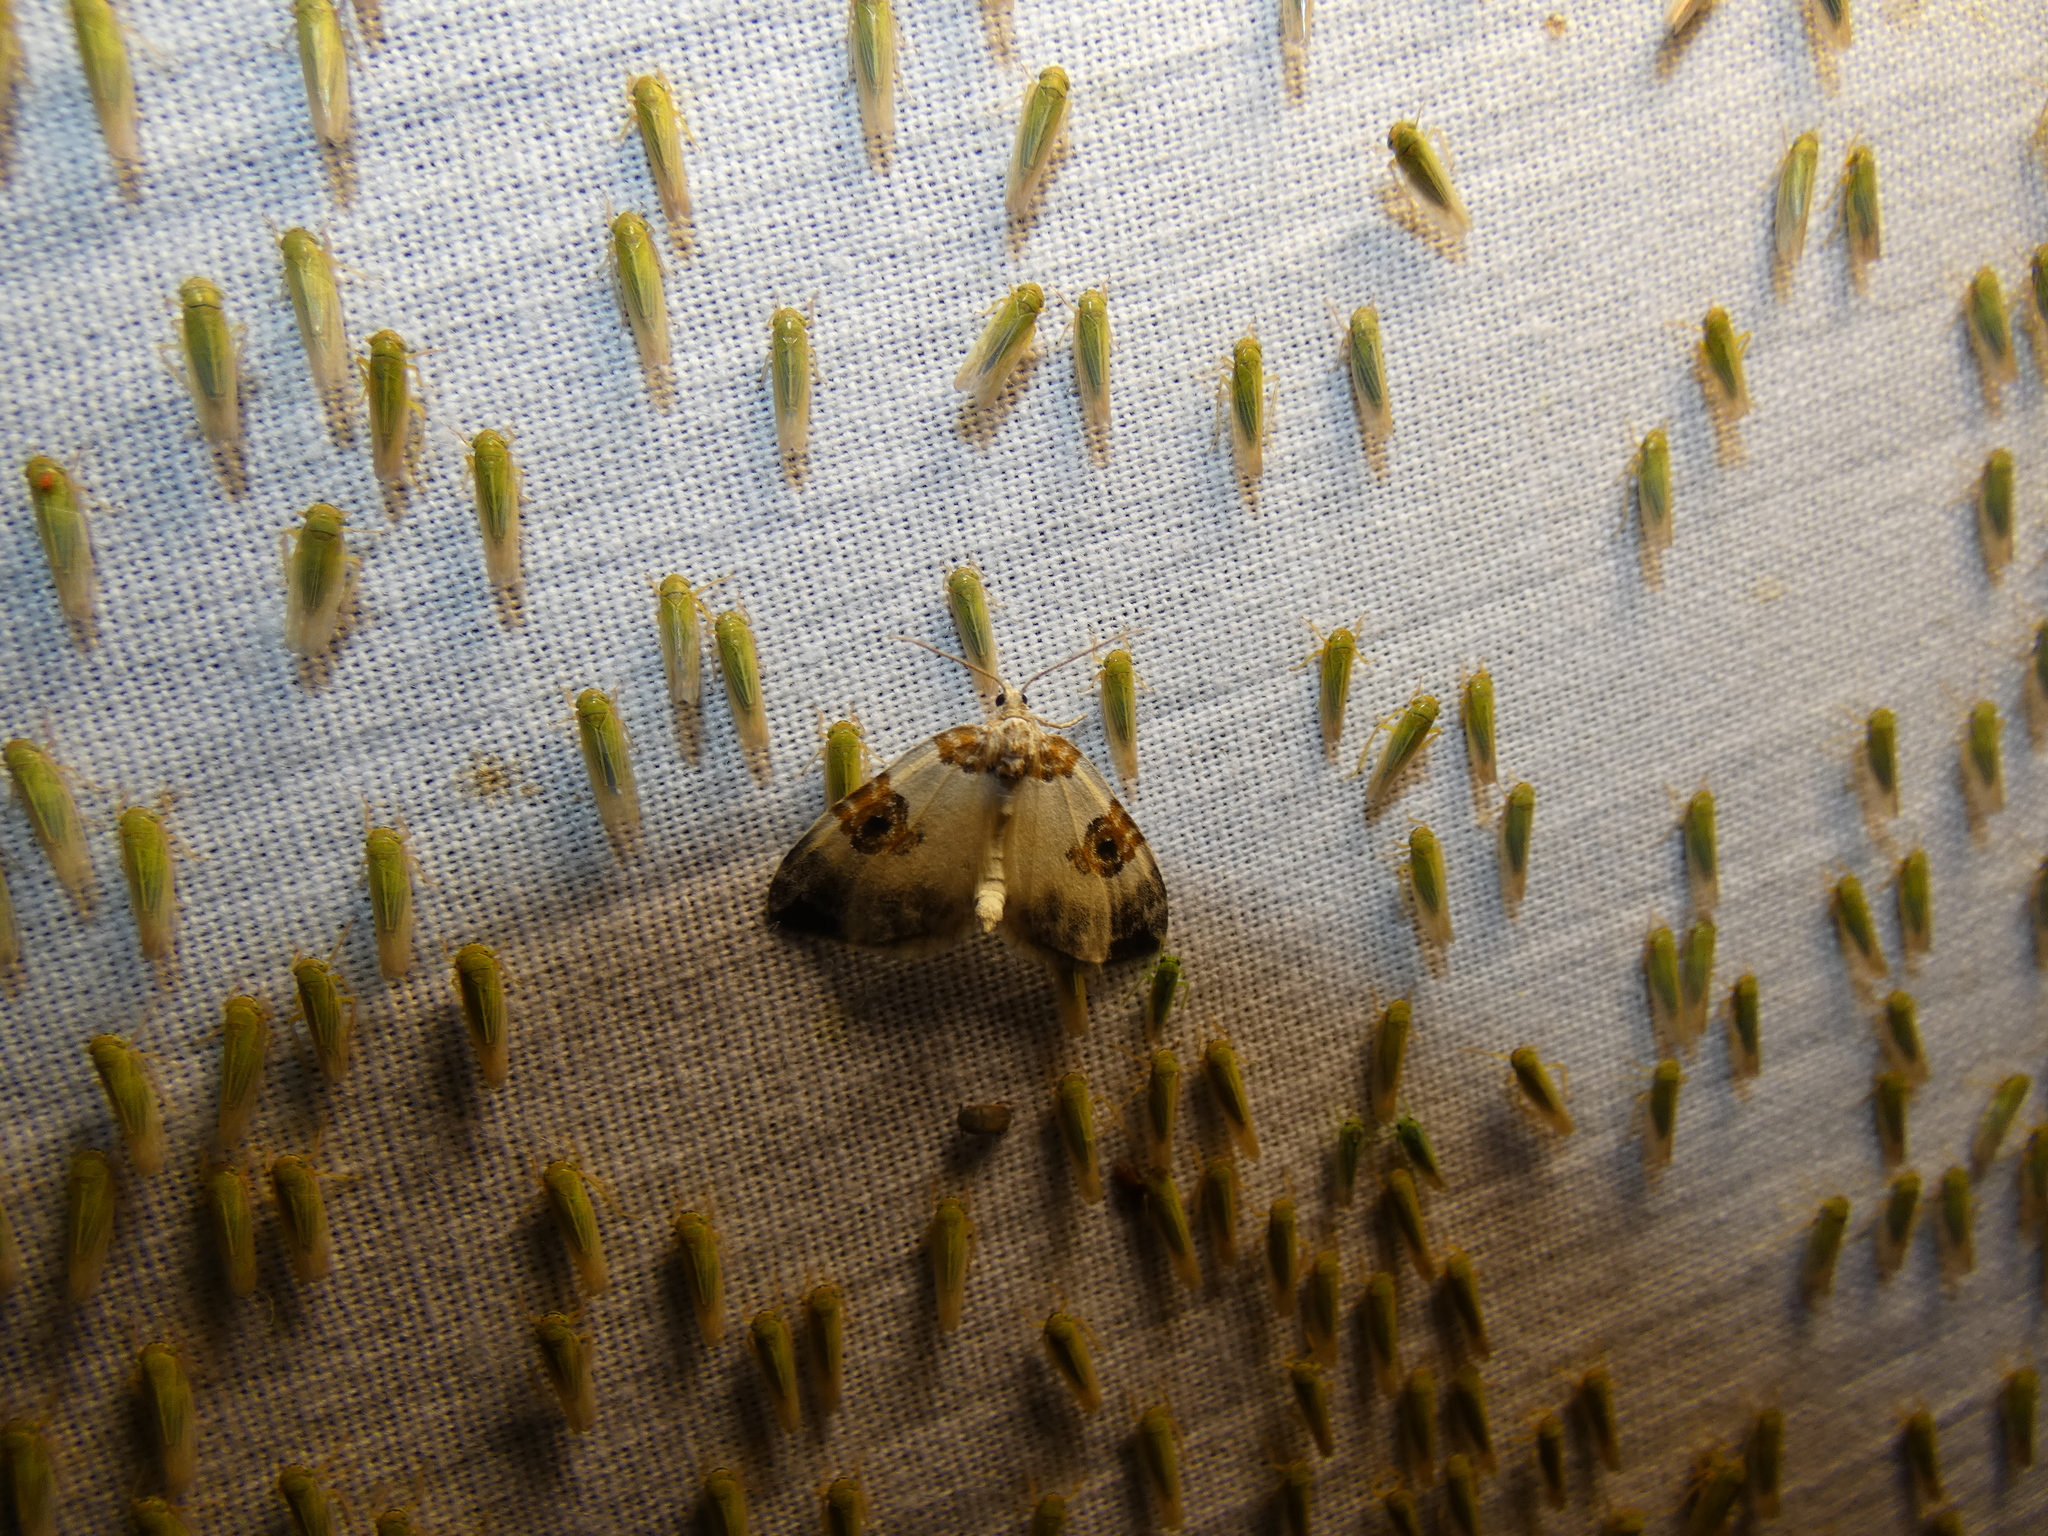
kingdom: Animalia
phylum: Arthropoda
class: Insecta
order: Lepidoptera
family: Geometridae
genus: Plemyria
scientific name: Plemyria rubiginata
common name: Blue-bordered carpet
